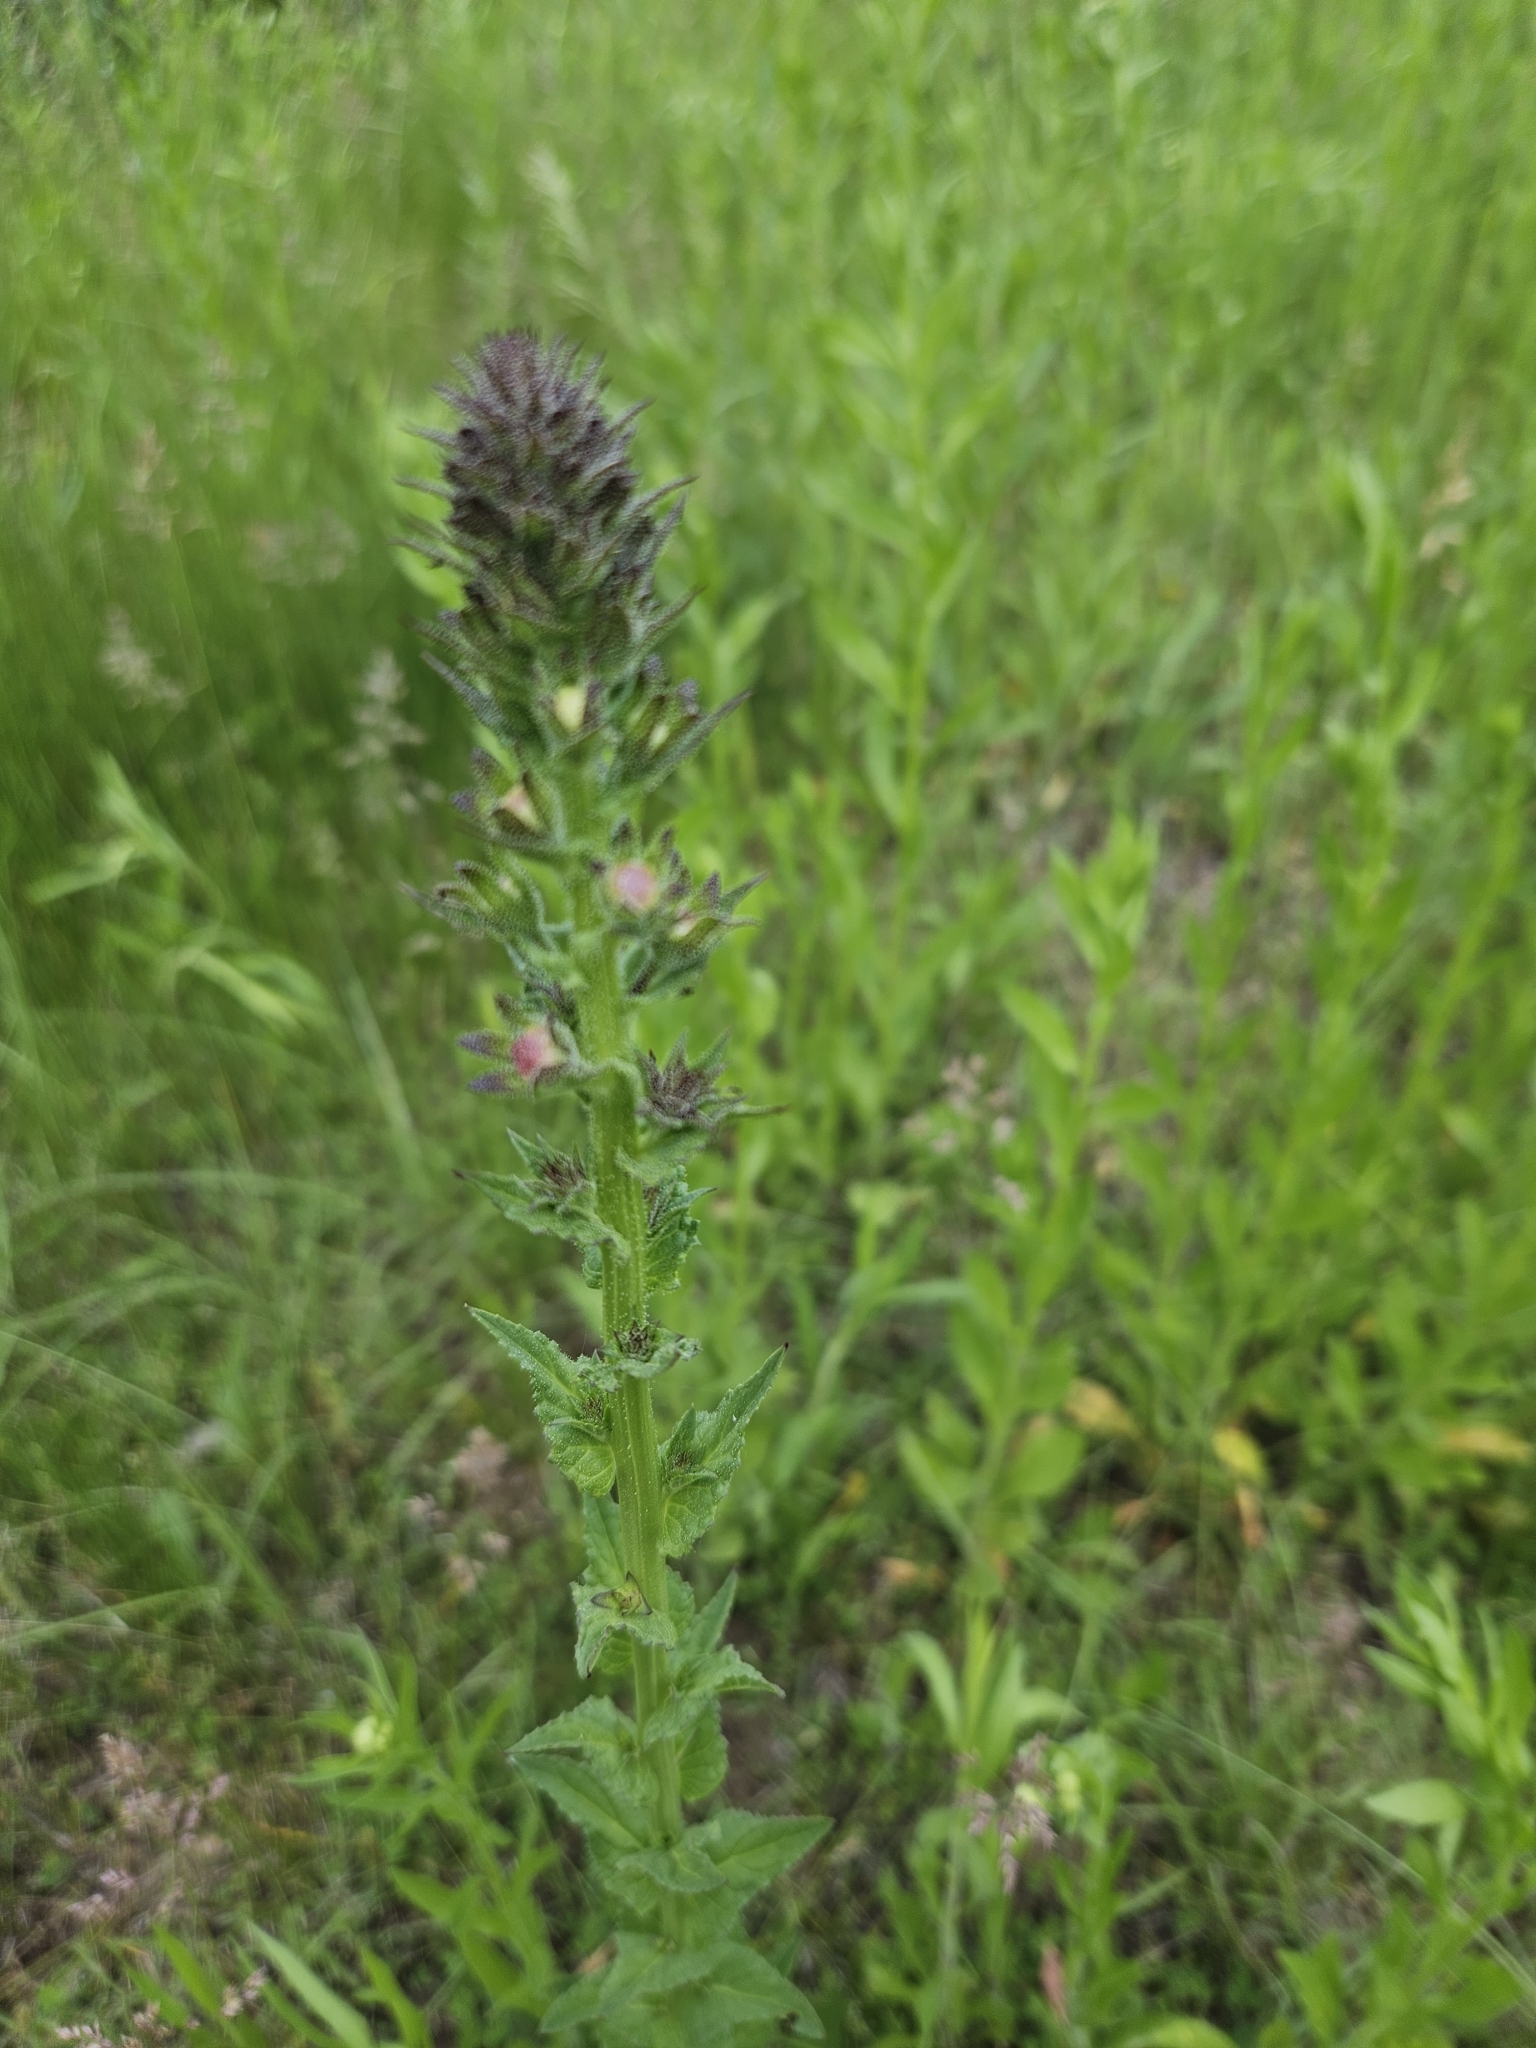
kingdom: Plantae
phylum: Tracheophyta
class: Magnoliopsida
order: Lamiales
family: Scrophulariaceae
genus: Verbascum
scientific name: Verbascum blattaria
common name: Moth mullein
